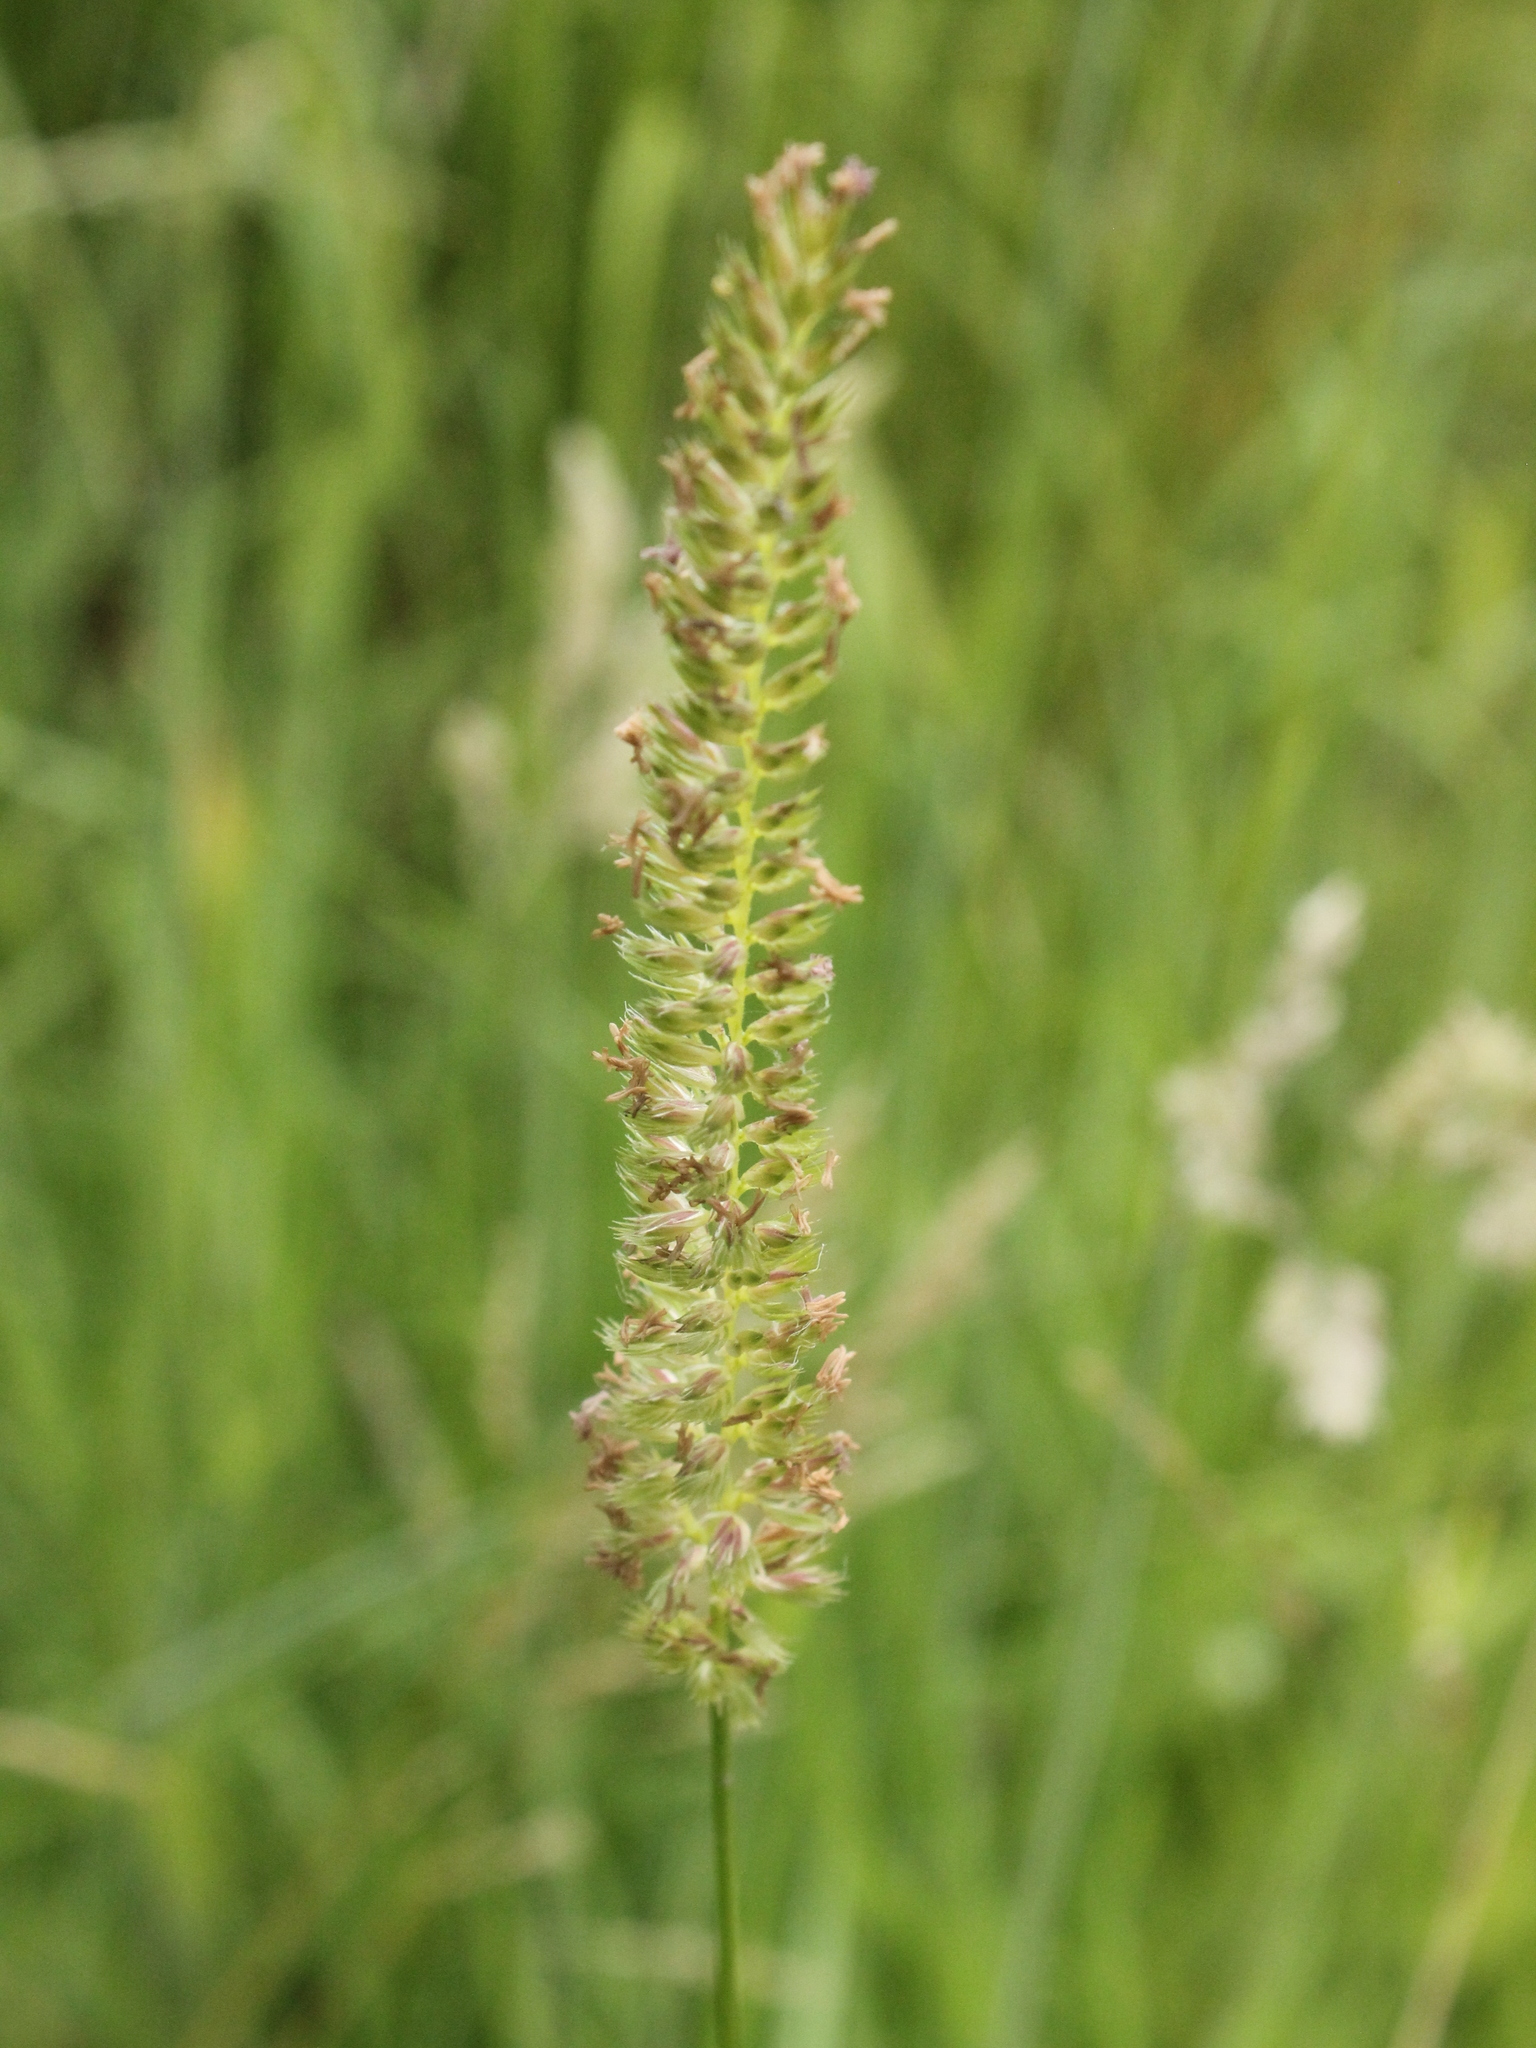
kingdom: Plantae
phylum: Tracheophyta
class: Liliopsida
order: Poales
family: Poaceae
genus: Cynosurus
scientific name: Cynosurus cristatus
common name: Crested dog's-tail
